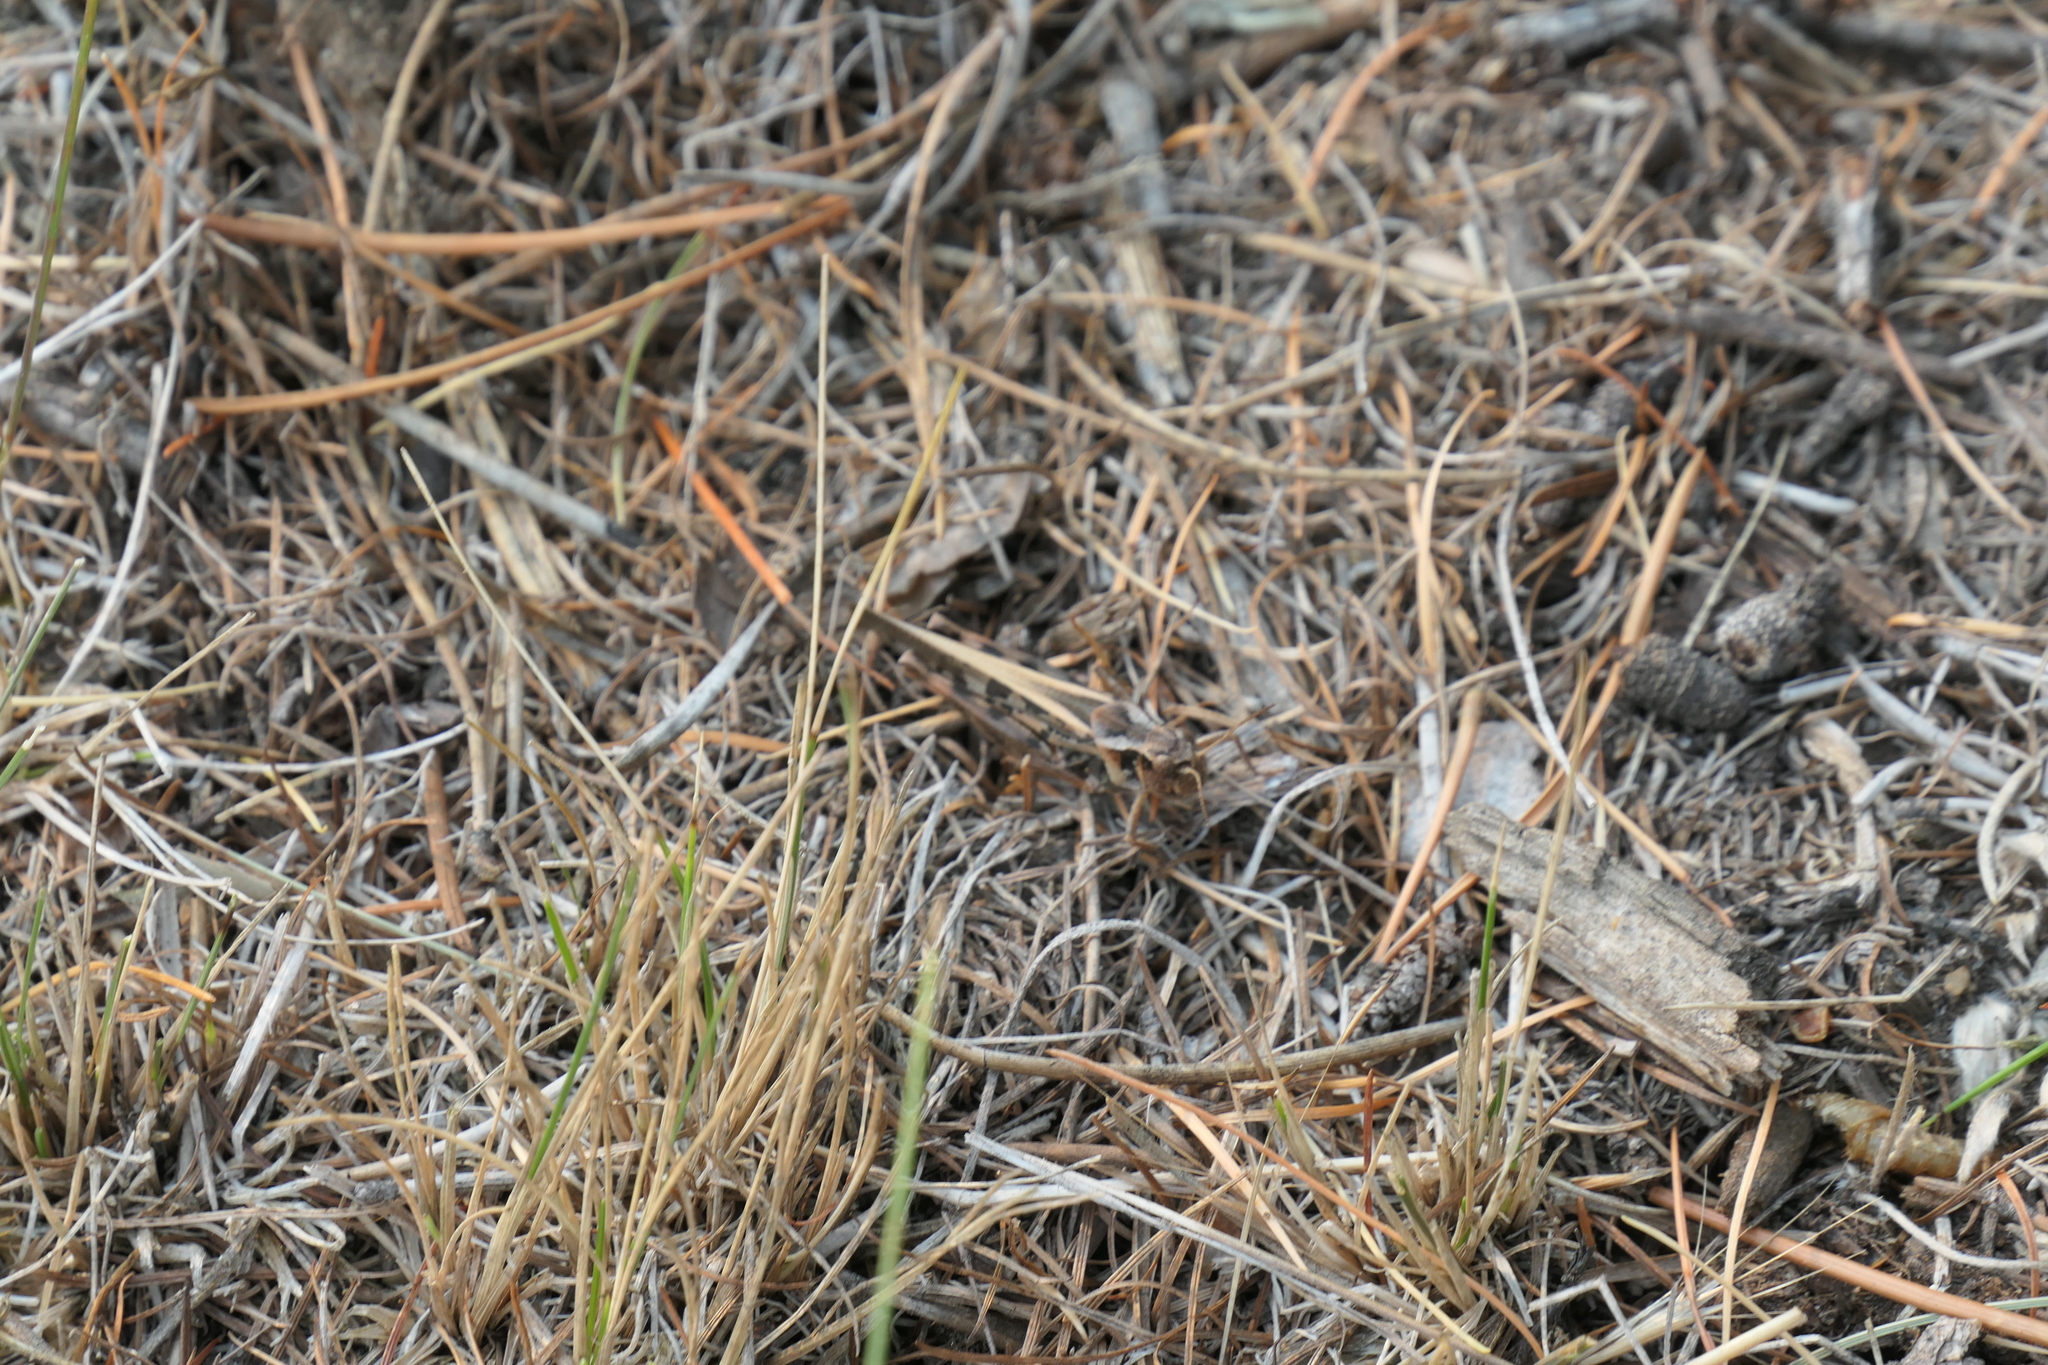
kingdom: Animalia
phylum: Arthropoda
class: Insecta
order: Orthoptera
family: Acrididae
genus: Camnula
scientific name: Camnula pellucida
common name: Clear-winged grasshopper
